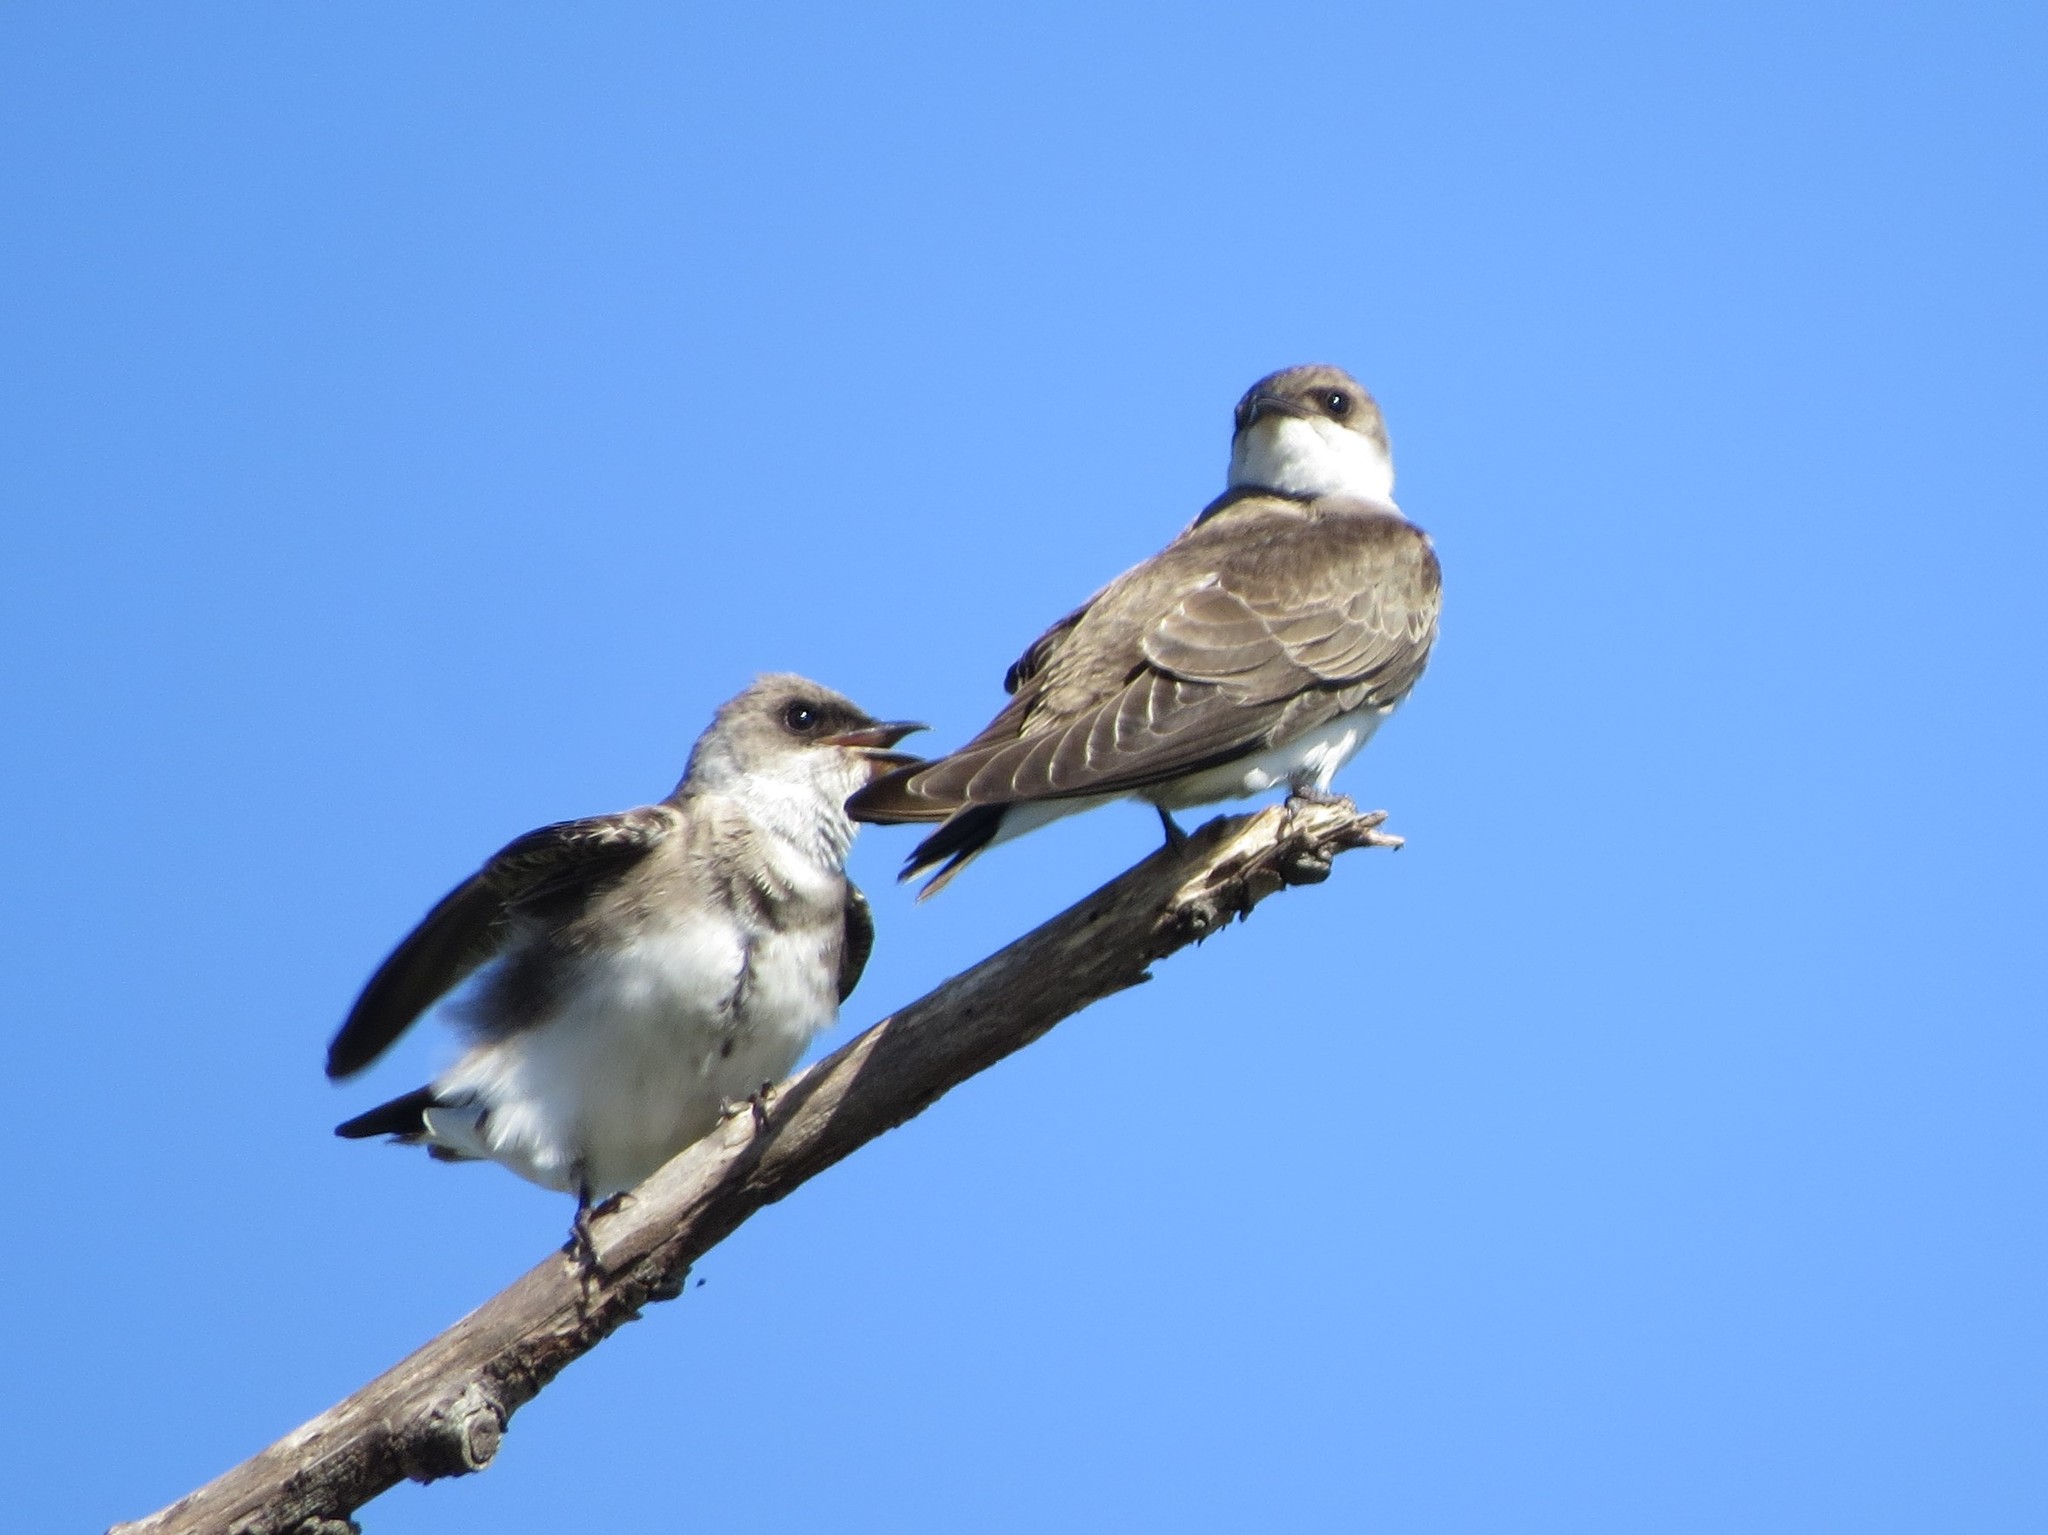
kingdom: Animalia
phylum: Chordata
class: Aves
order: Passeriformes
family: Hirundinidae
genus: Progne
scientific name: Progne tapera
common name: Brown-chested martin
